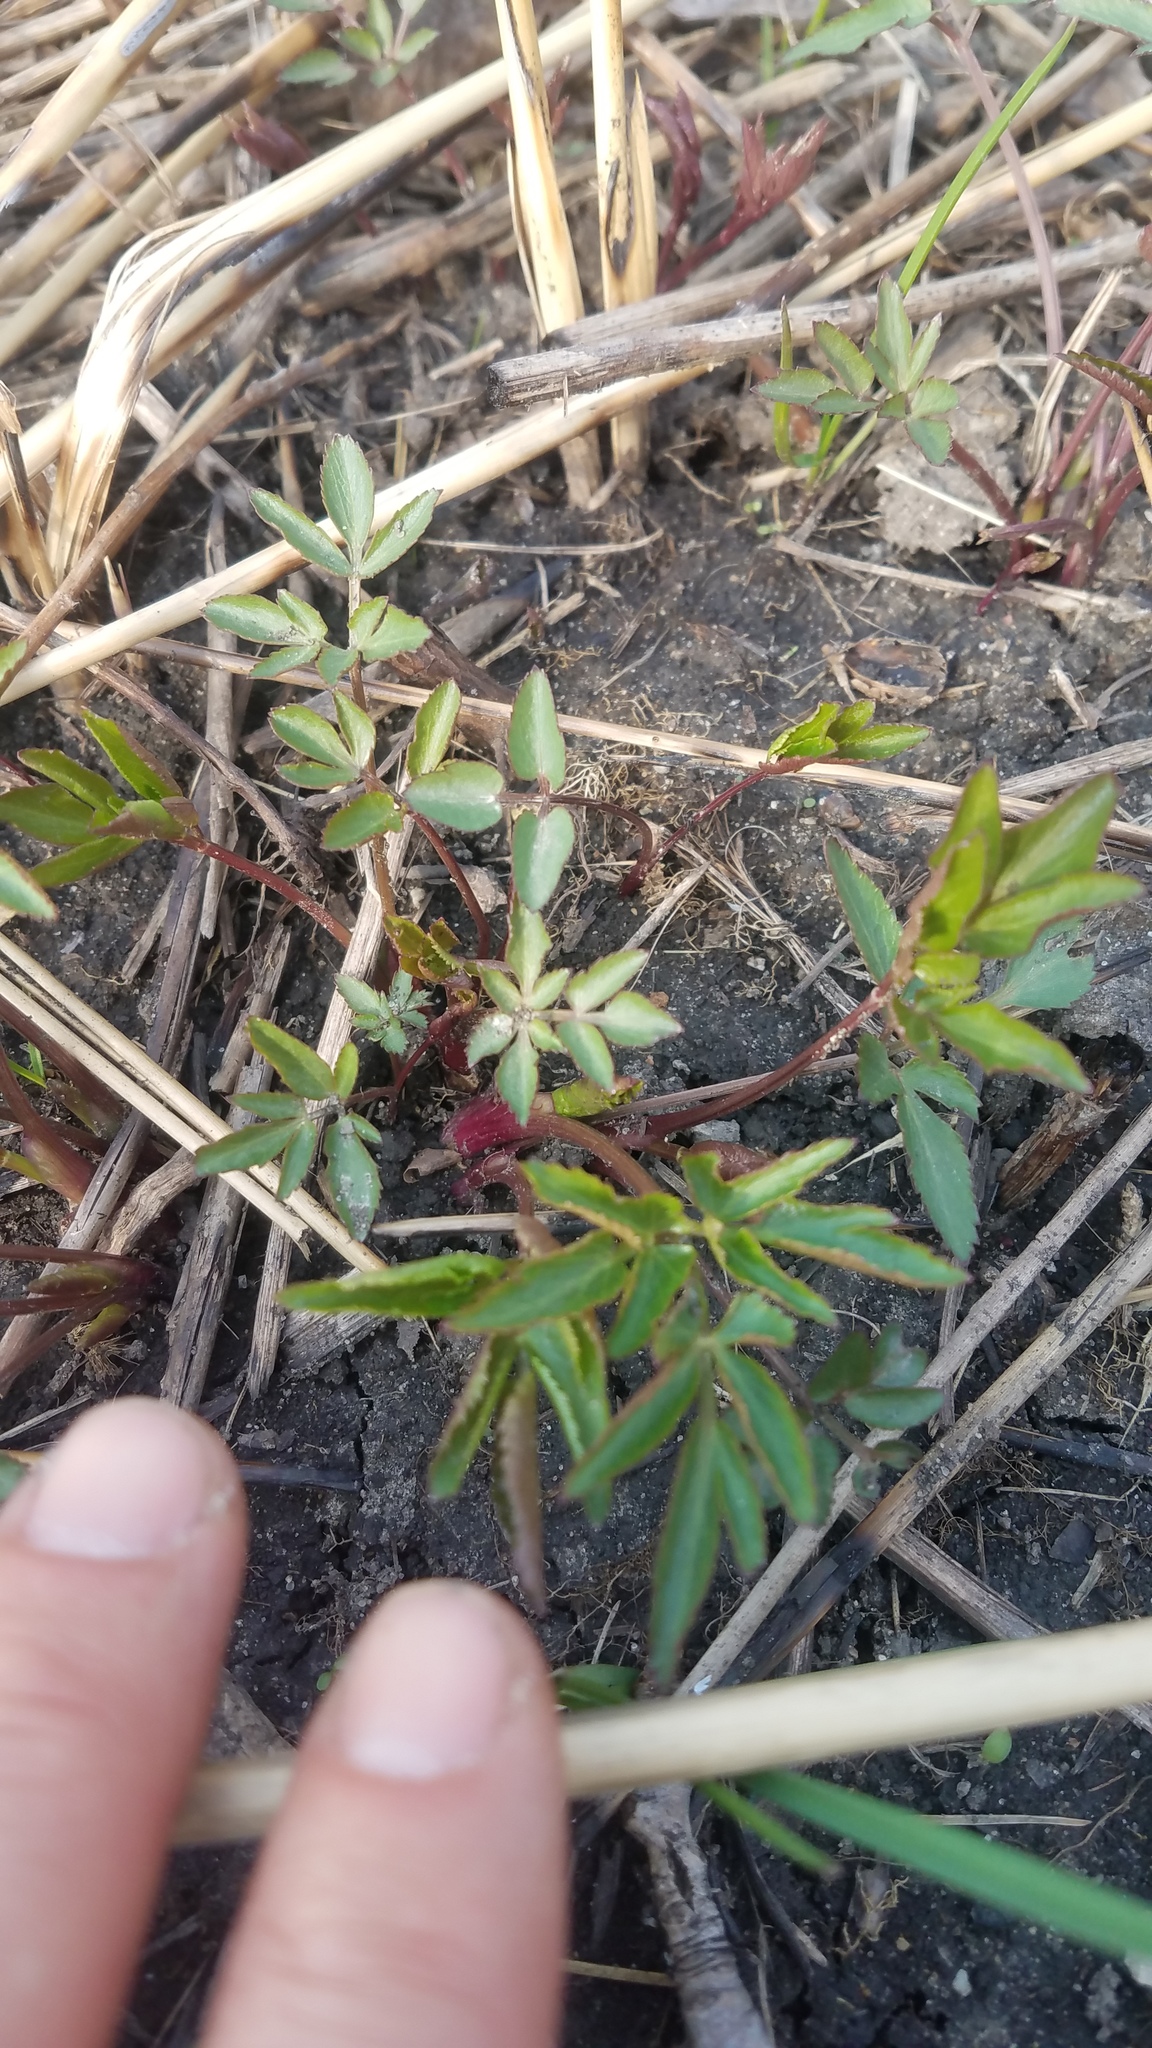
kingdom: Plantae
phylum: Tracheophyta
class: Magnoliopsida
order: Apiales
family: Apiaceae
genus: Zizia
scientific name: Zizia aurea
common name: Golden alexanders
